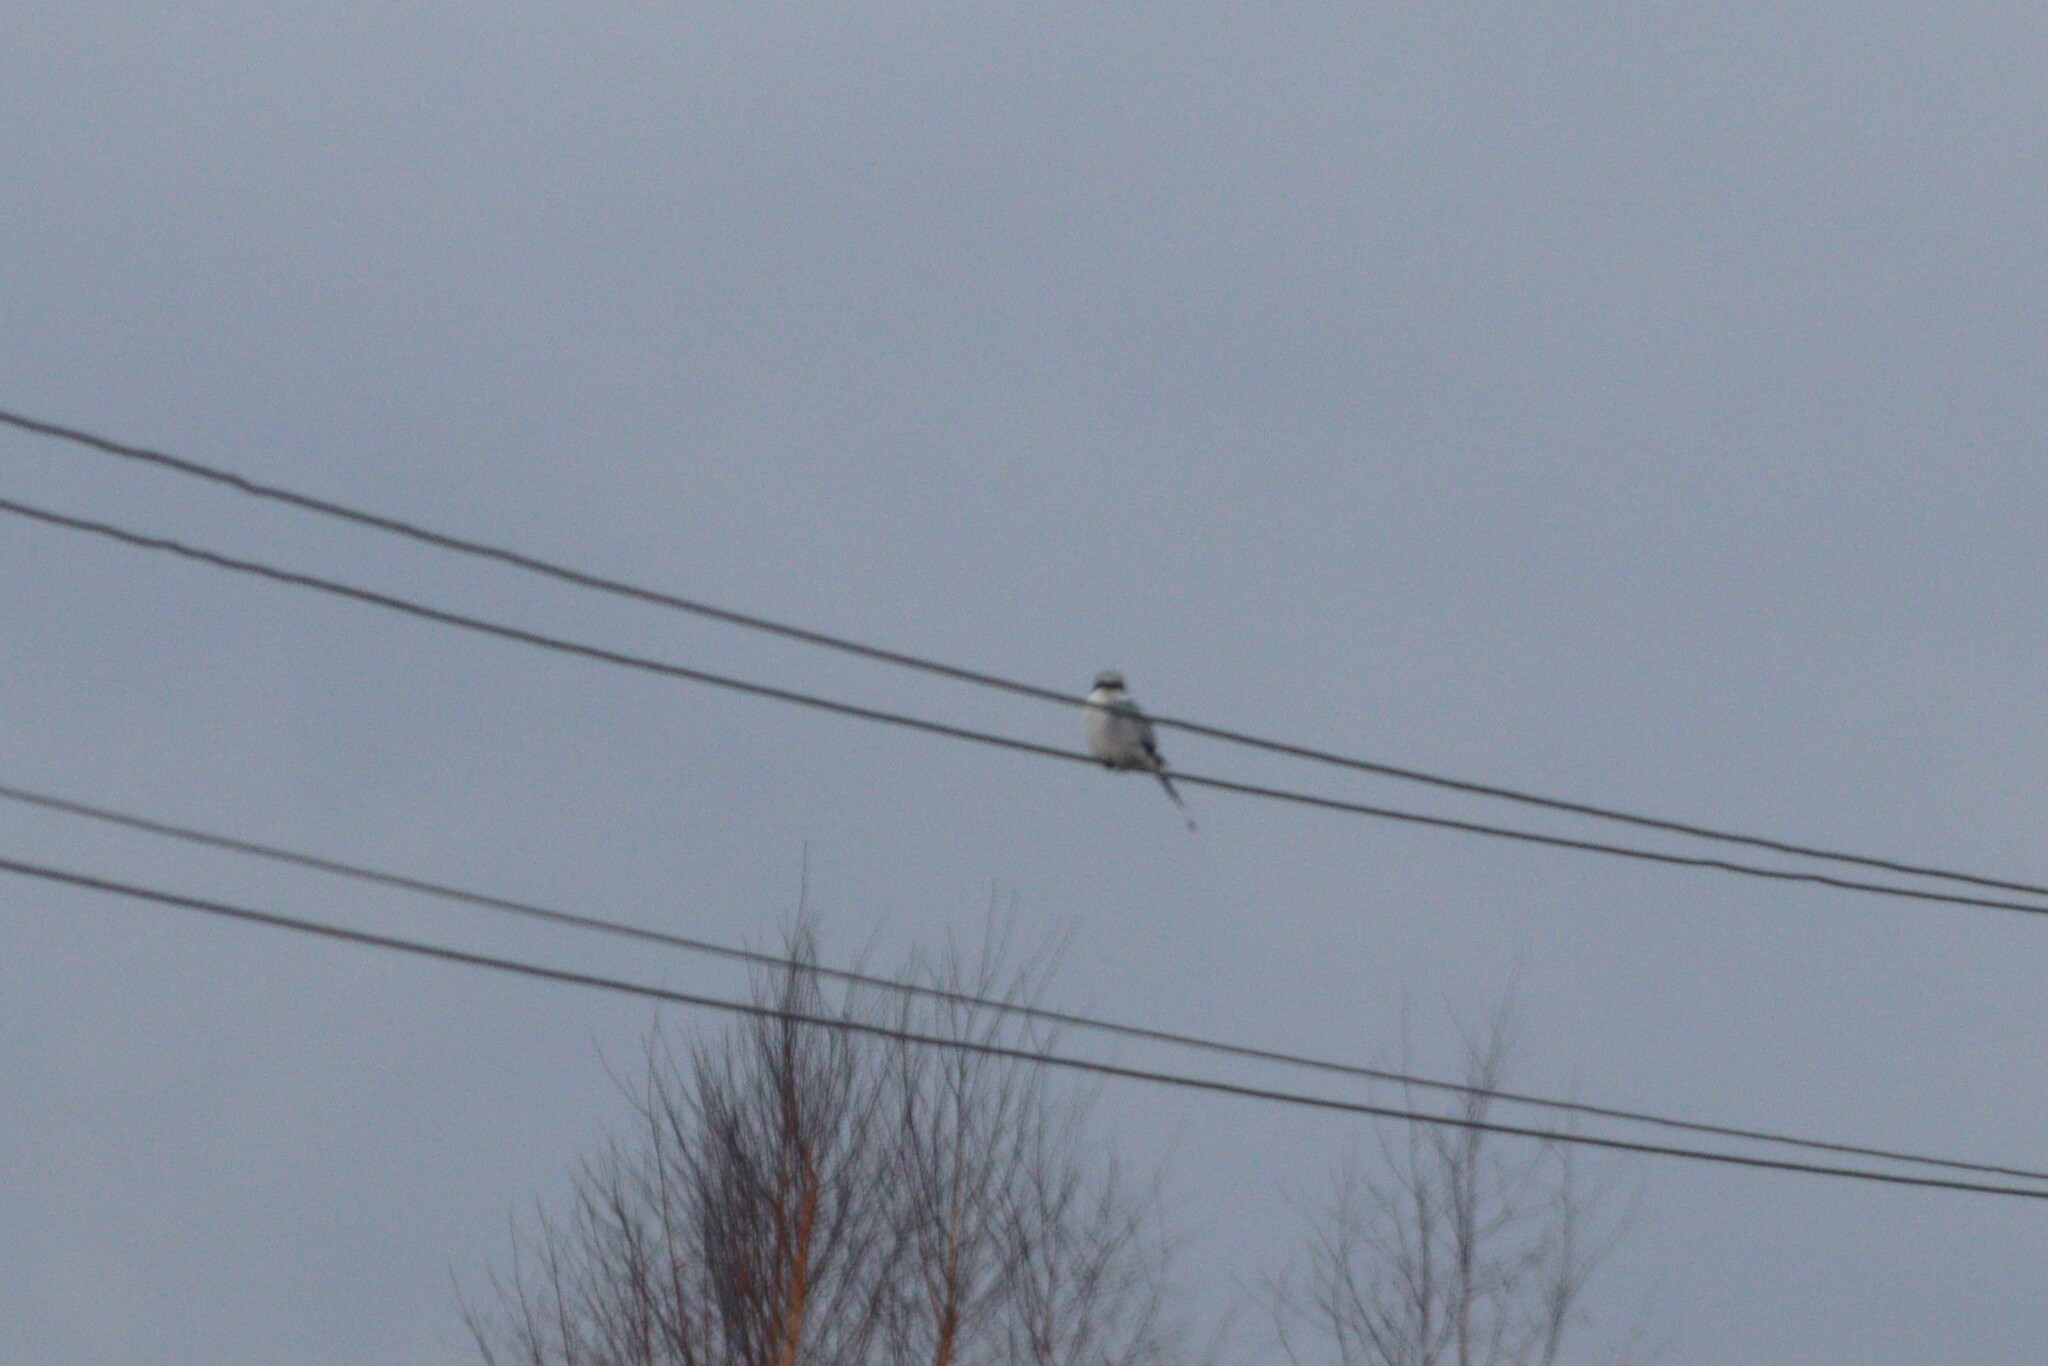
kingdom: Animalia
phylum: Chordata
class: Aves
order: Passeriformes
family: Laniidae
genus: Lanius
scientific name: Lanius excubitor
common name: Great grey shrike
